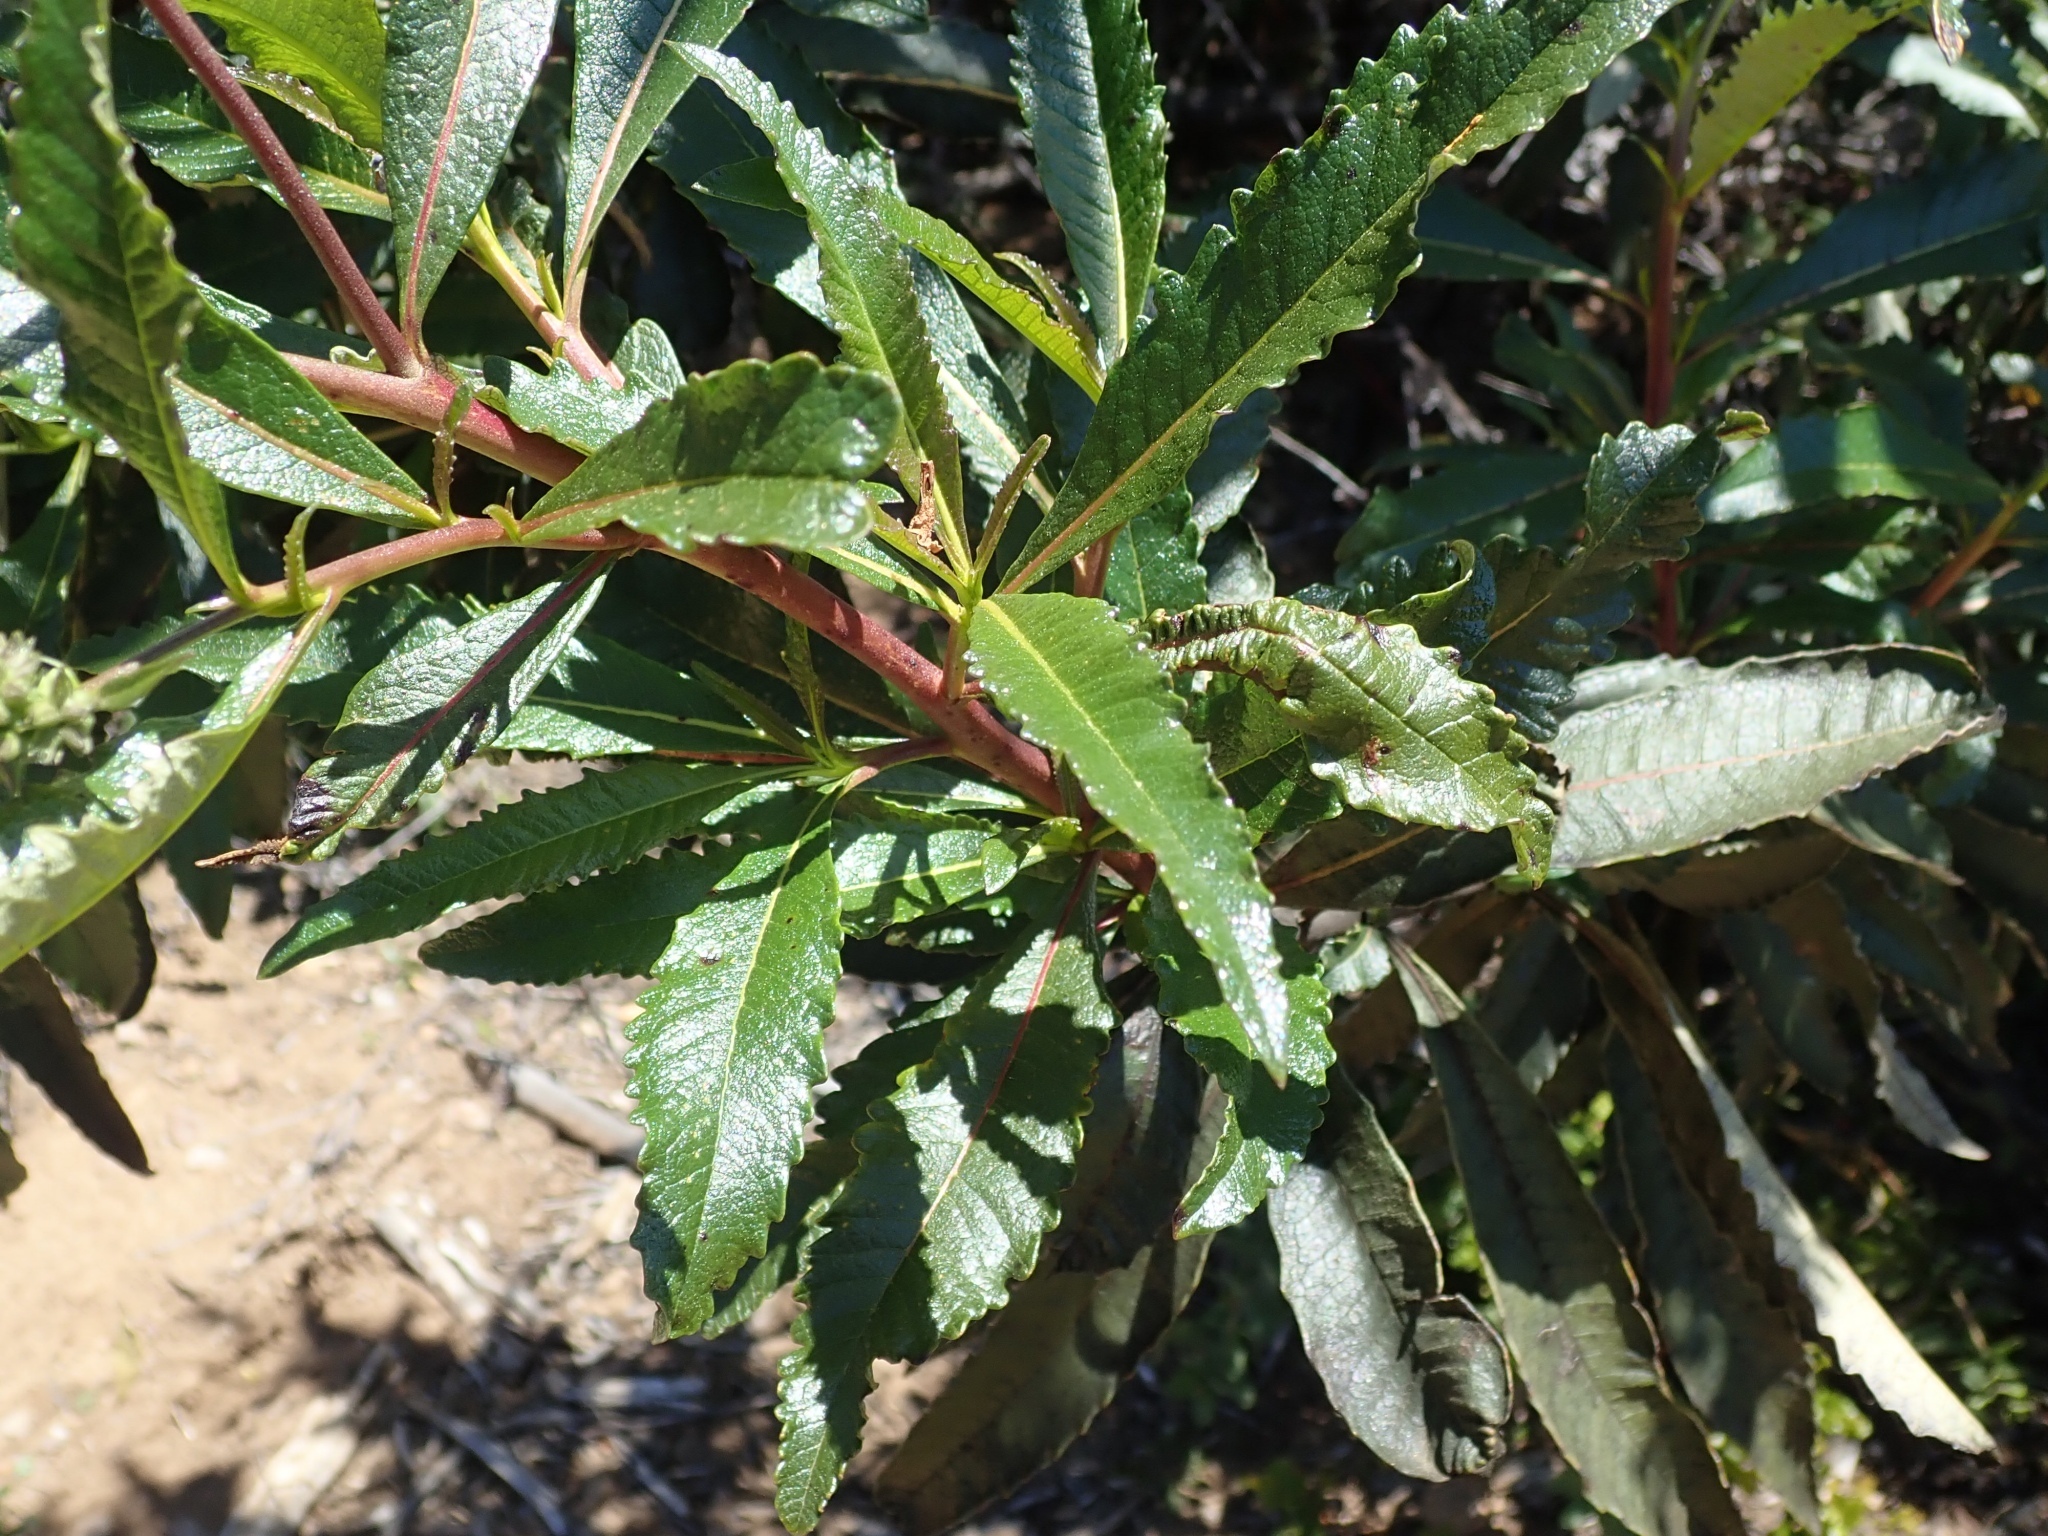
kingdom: Plantae
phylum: Tracheophyta
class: Magnoliopsida
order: Boraginales
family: Namaceae
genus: Eriodictyon
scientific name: Eriodictyon californicum
